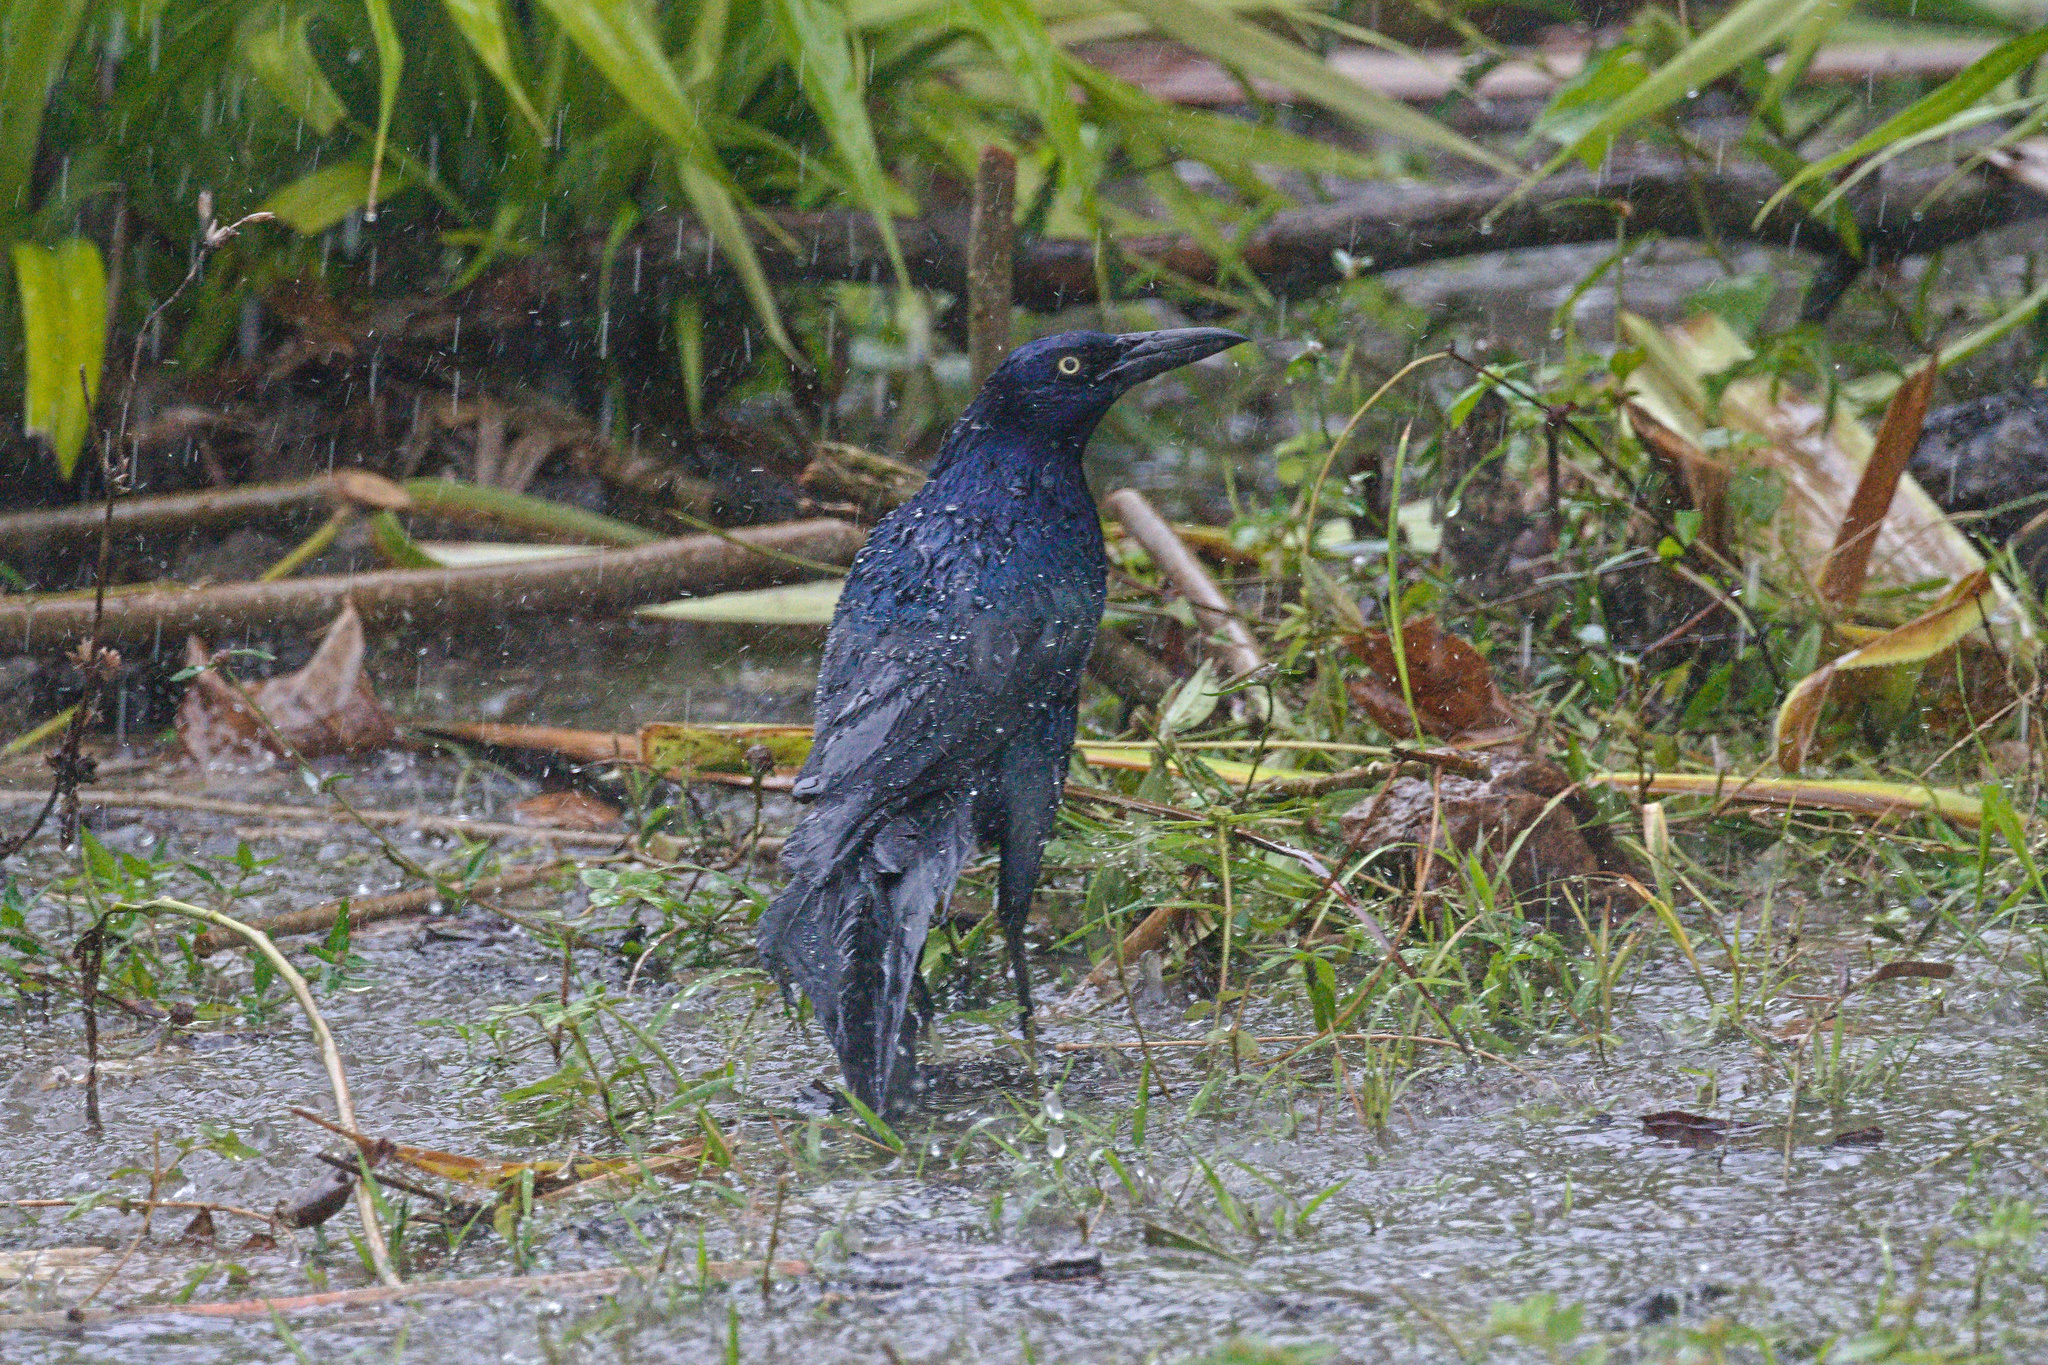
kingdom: Animalia
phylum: Chordata
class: Aves
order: Passeriformes
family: Icteridae
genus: Quiscalus
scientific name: Quiscalus mexicanus
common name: Great-tailed grackle
